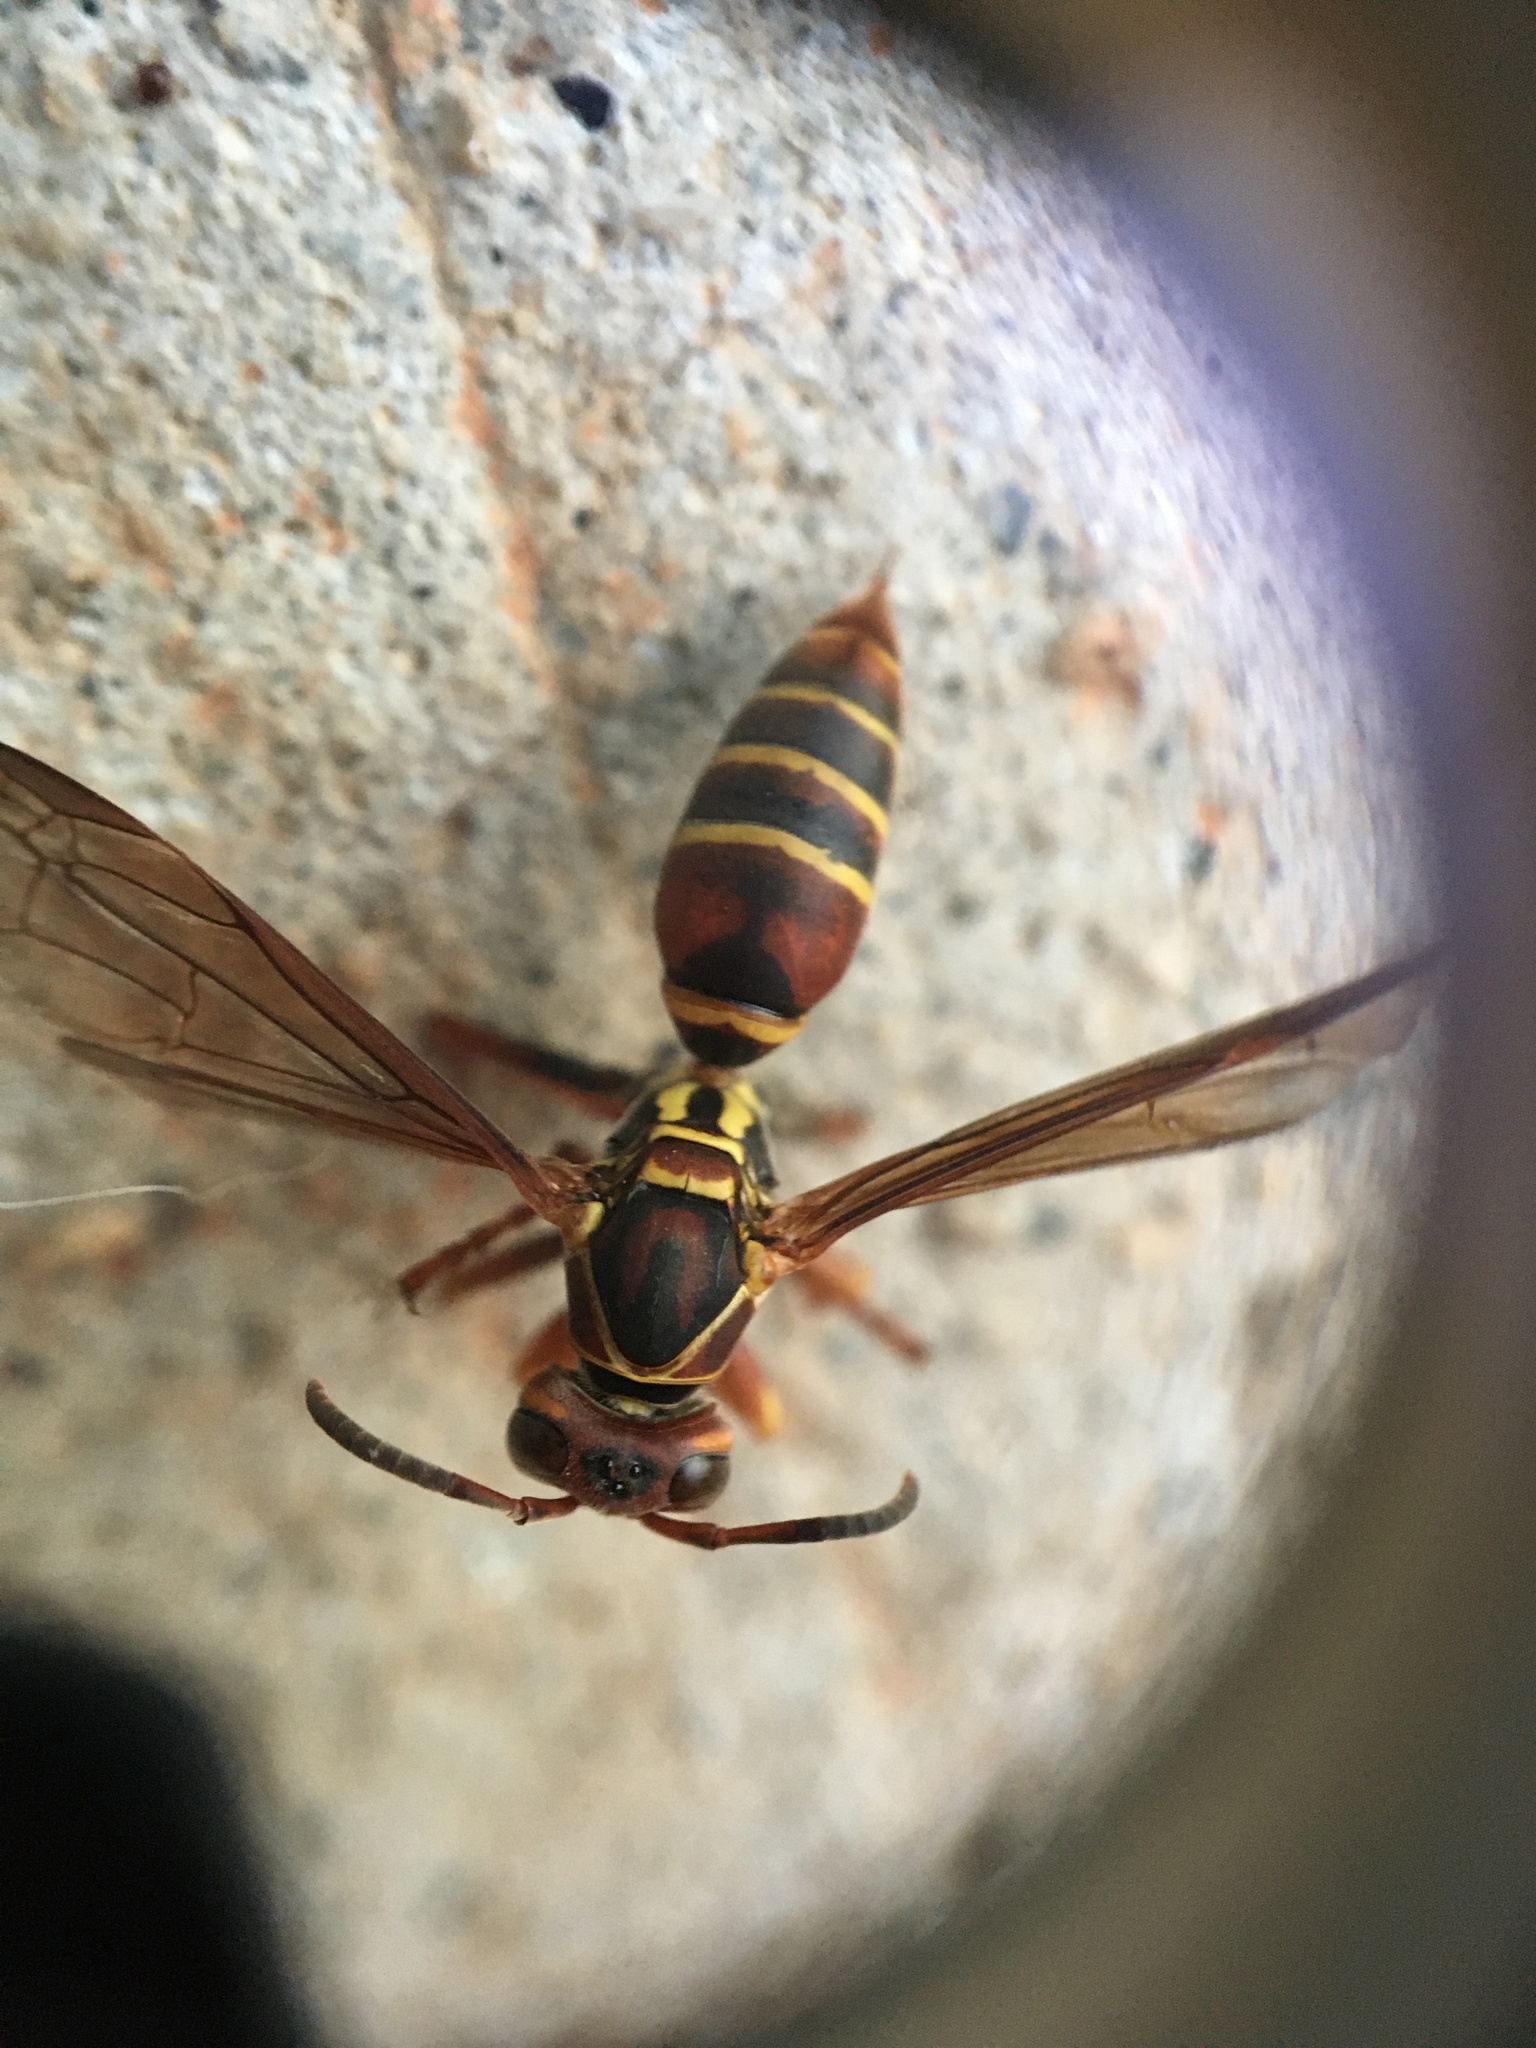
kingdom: Animalia
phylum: Arthropoda
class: Insecta
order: Hymenoptera
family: Eumenidae
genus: Polistes
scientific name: Polistes dorsalis
